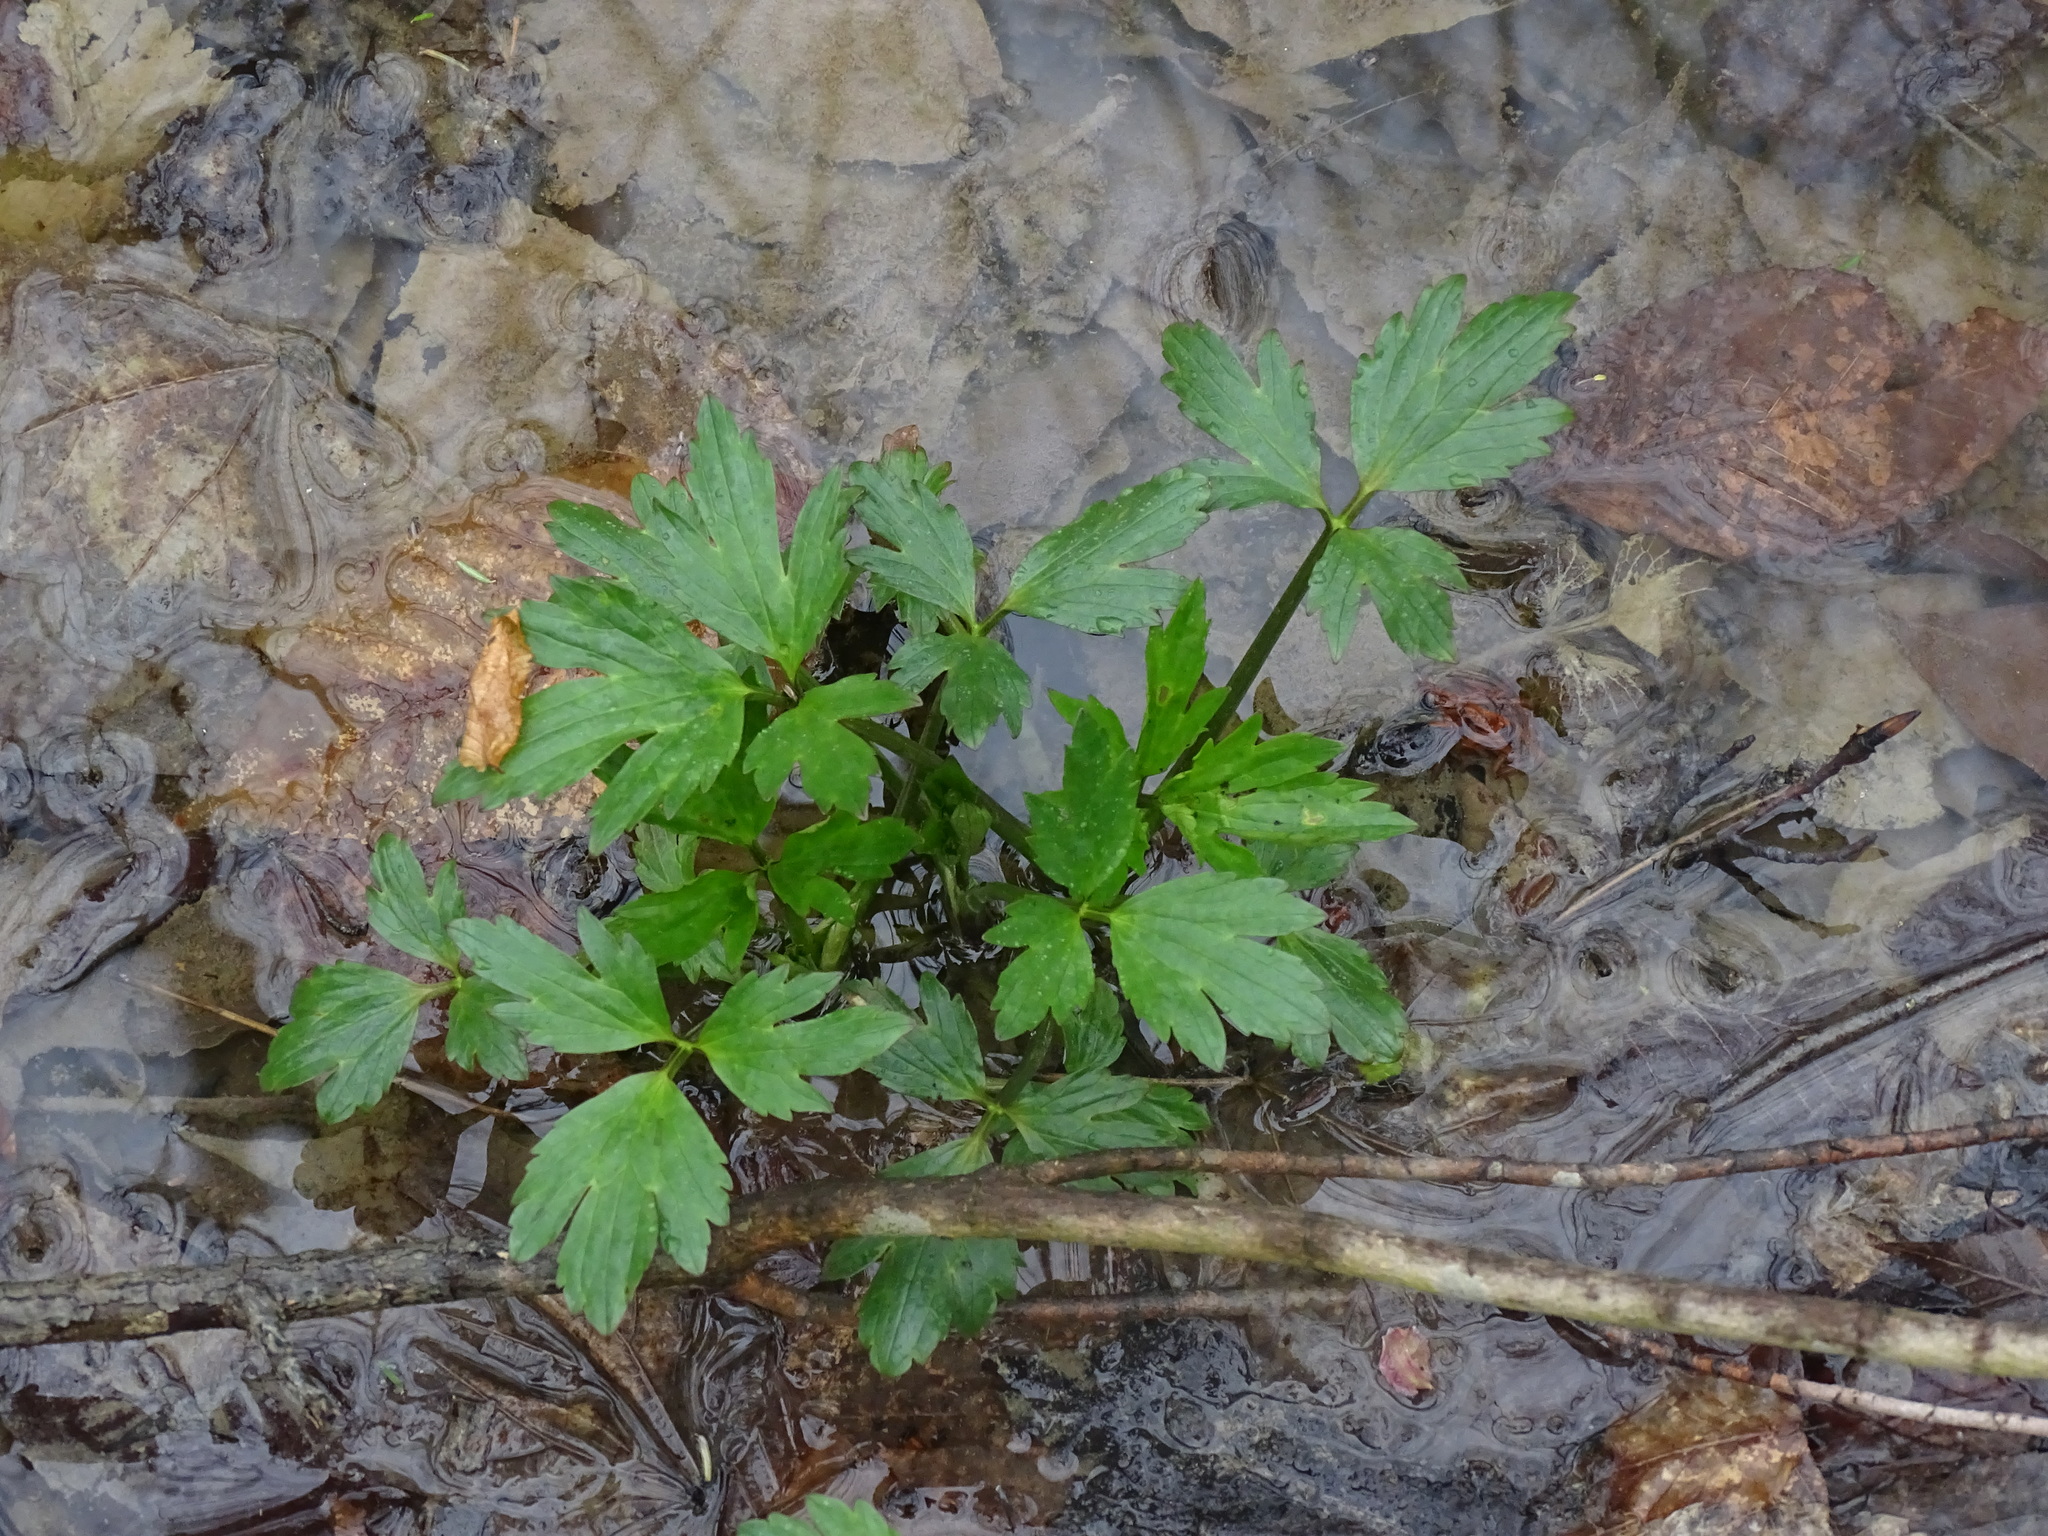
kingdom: Plantae
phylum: Tracheophyta
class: Magnoliopsida
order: Ranunculales
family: Ranunculaceae
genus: Ranunculus
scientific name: Ranunculus hispidus
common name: Bristly buttercup
